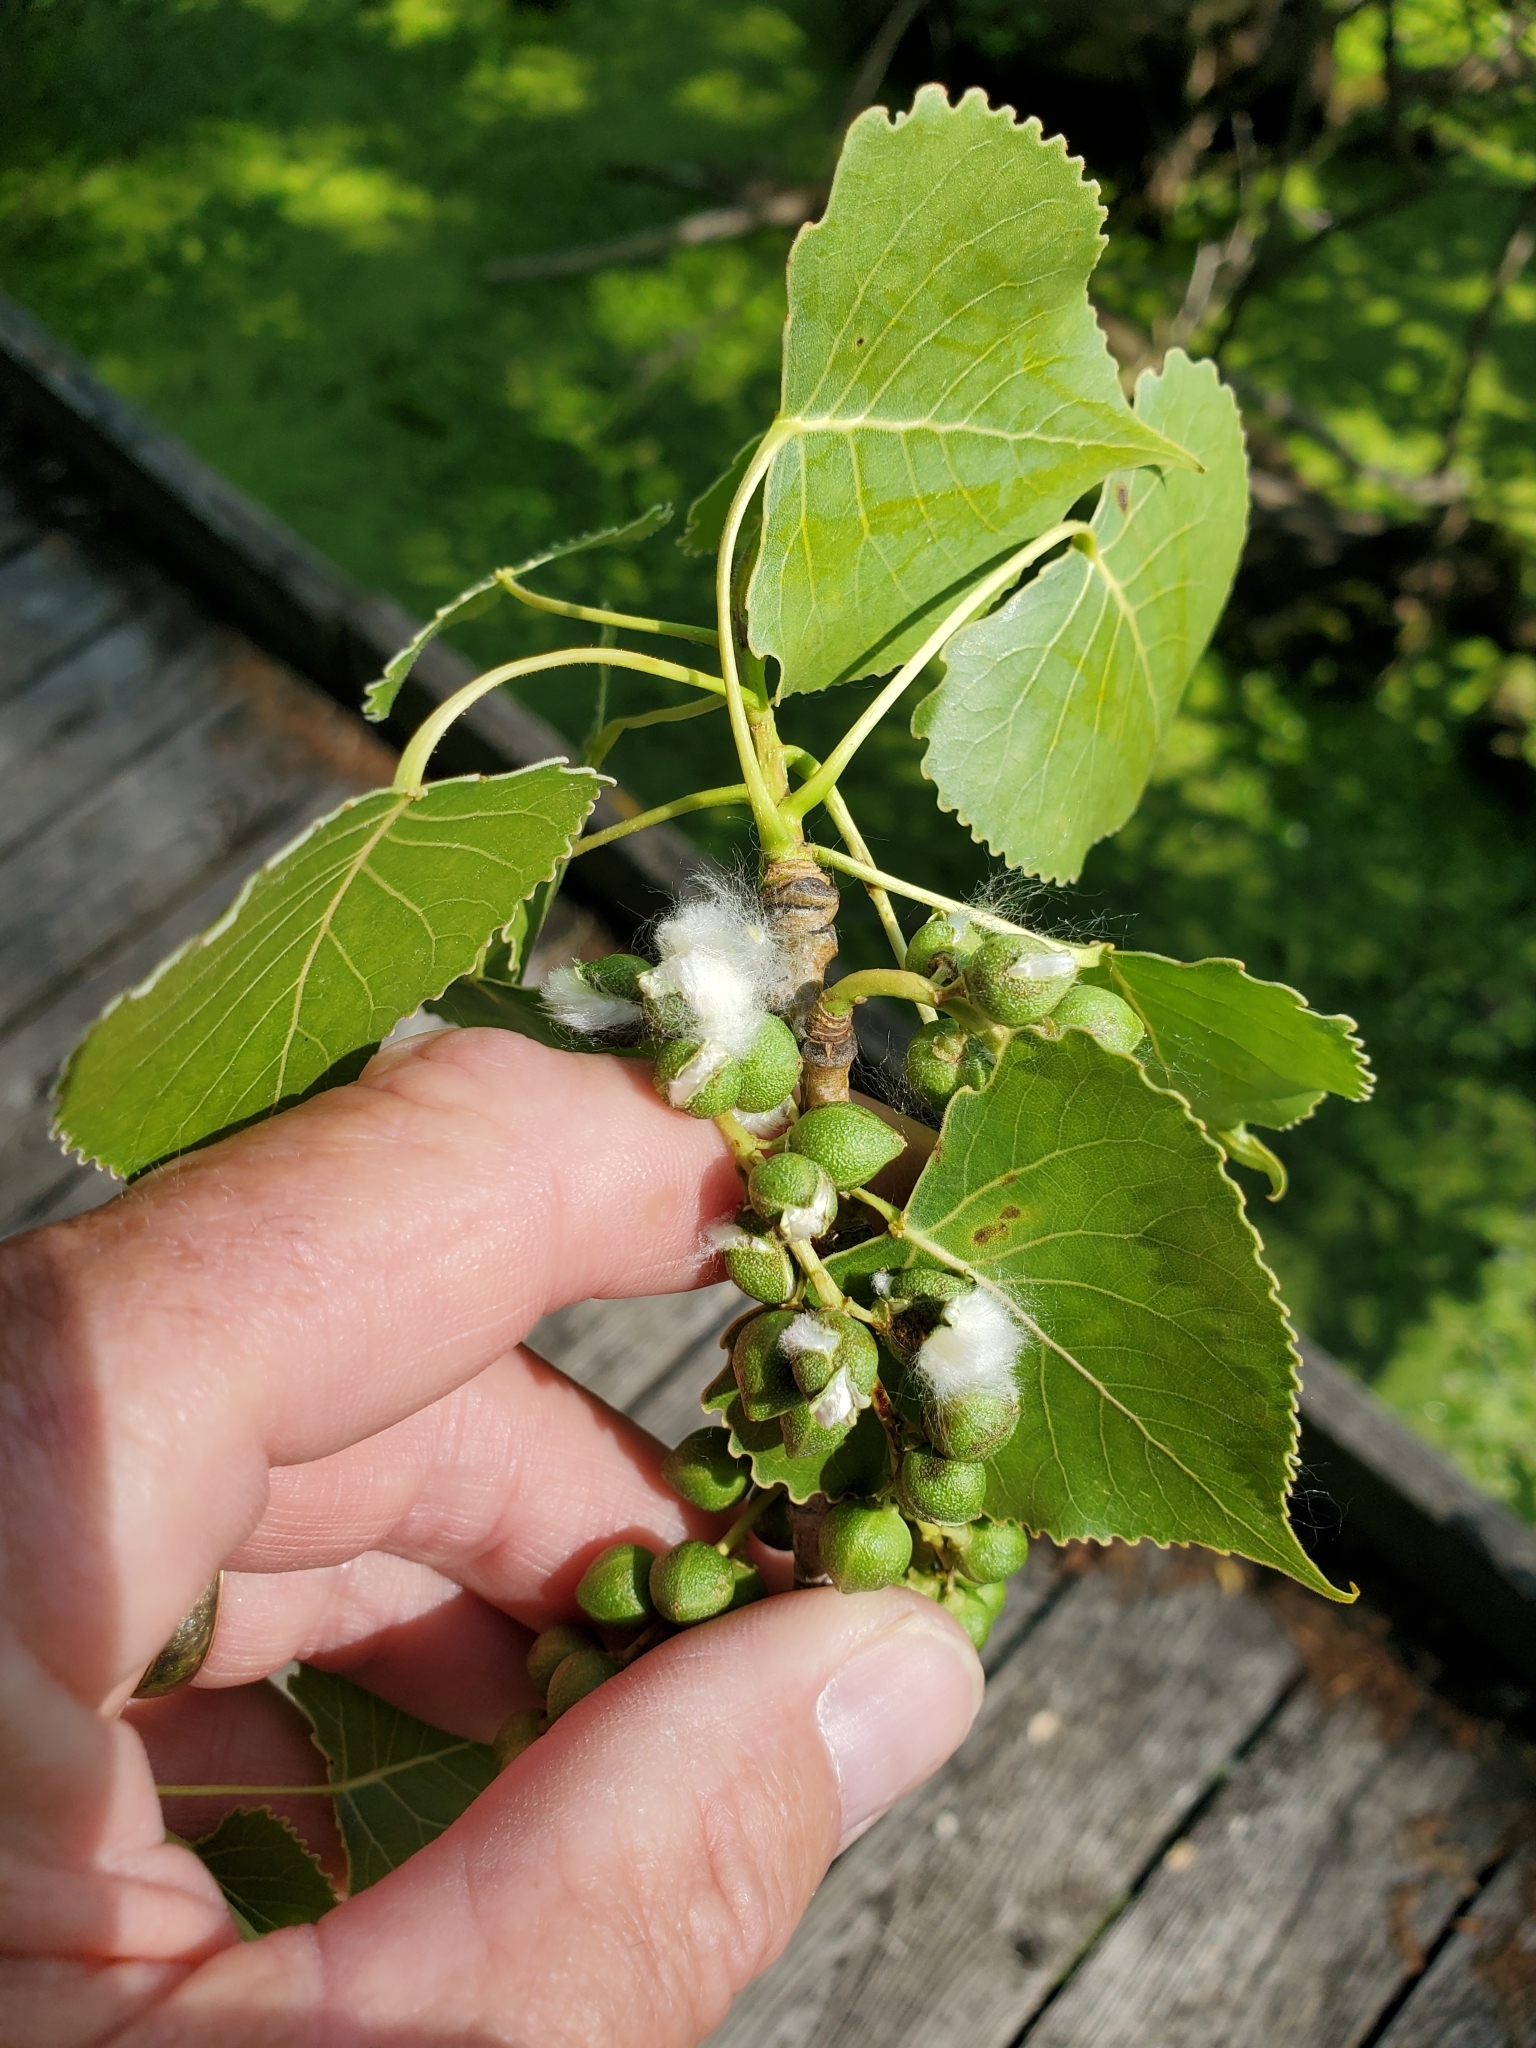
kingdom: Plantae
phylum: Tracheophyta
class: Magnoliopsida
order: Malpighiales
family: Salicaceae
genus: Populus
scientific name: Populus deltoides
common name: Eastern cottonwood
